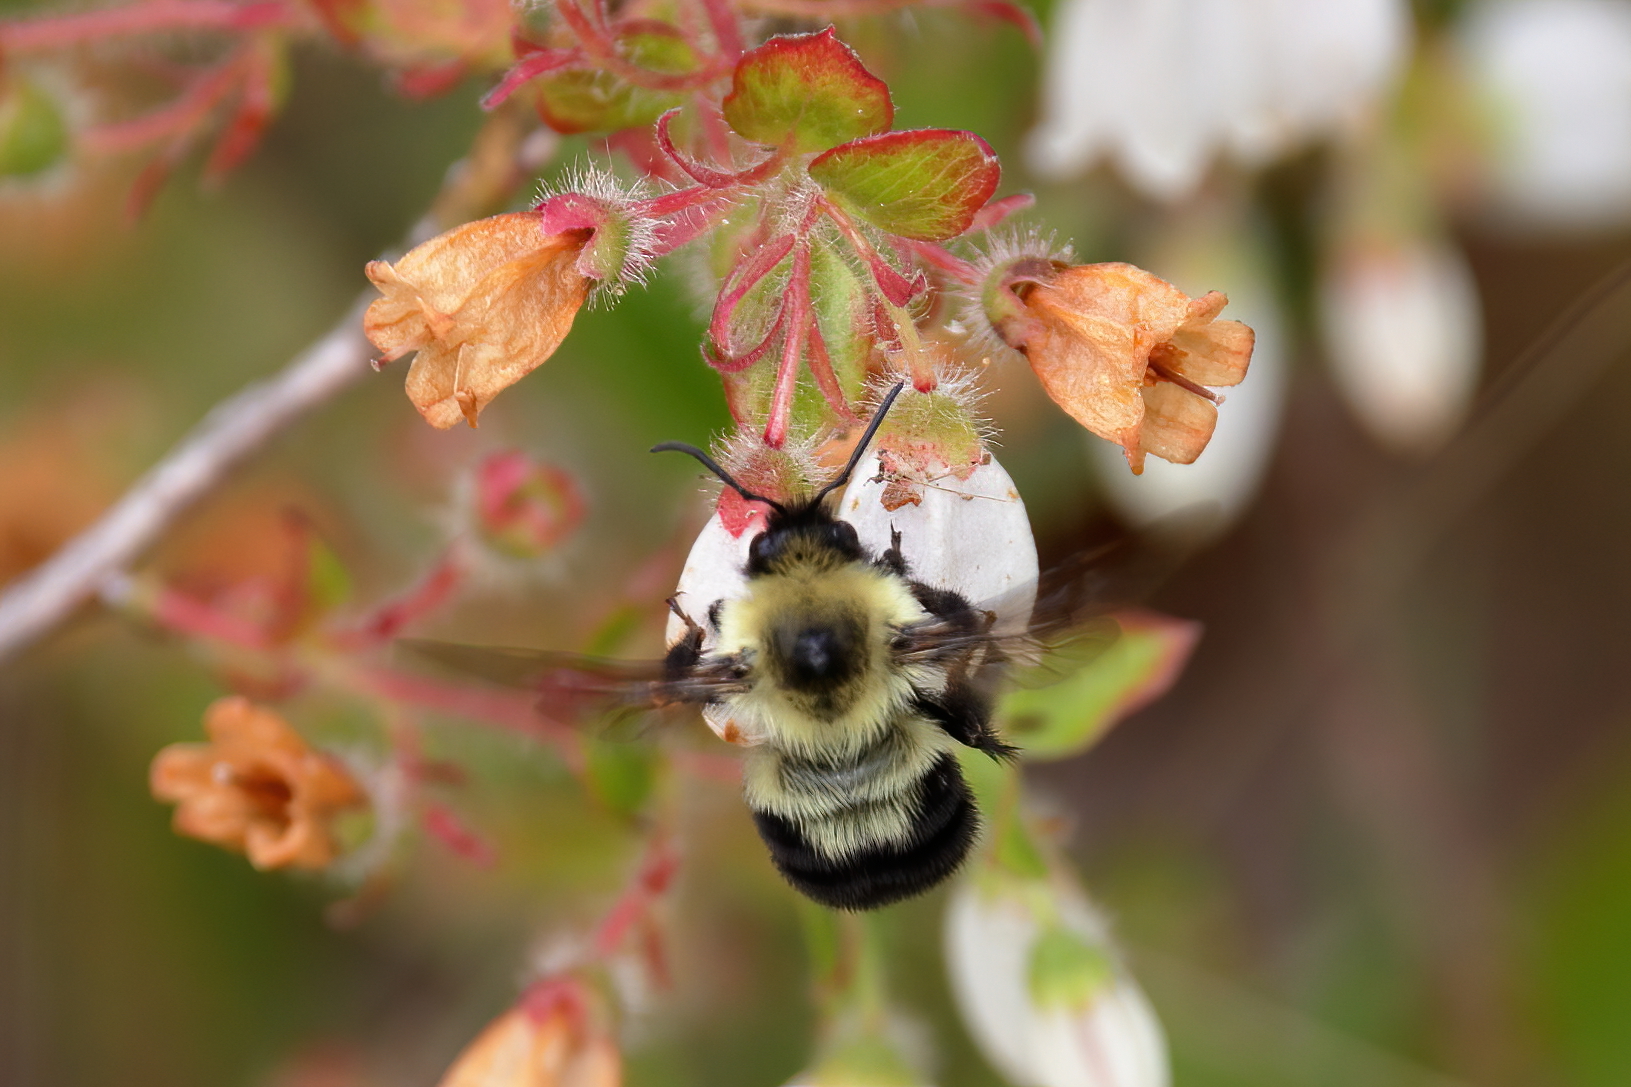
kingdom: Animalia
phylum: Arthropoda
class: Insecta
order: Hymenoptera
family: Apidae
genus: Bombus
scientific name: Bombus bimaculatus
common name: Two-spotted bumble bee
